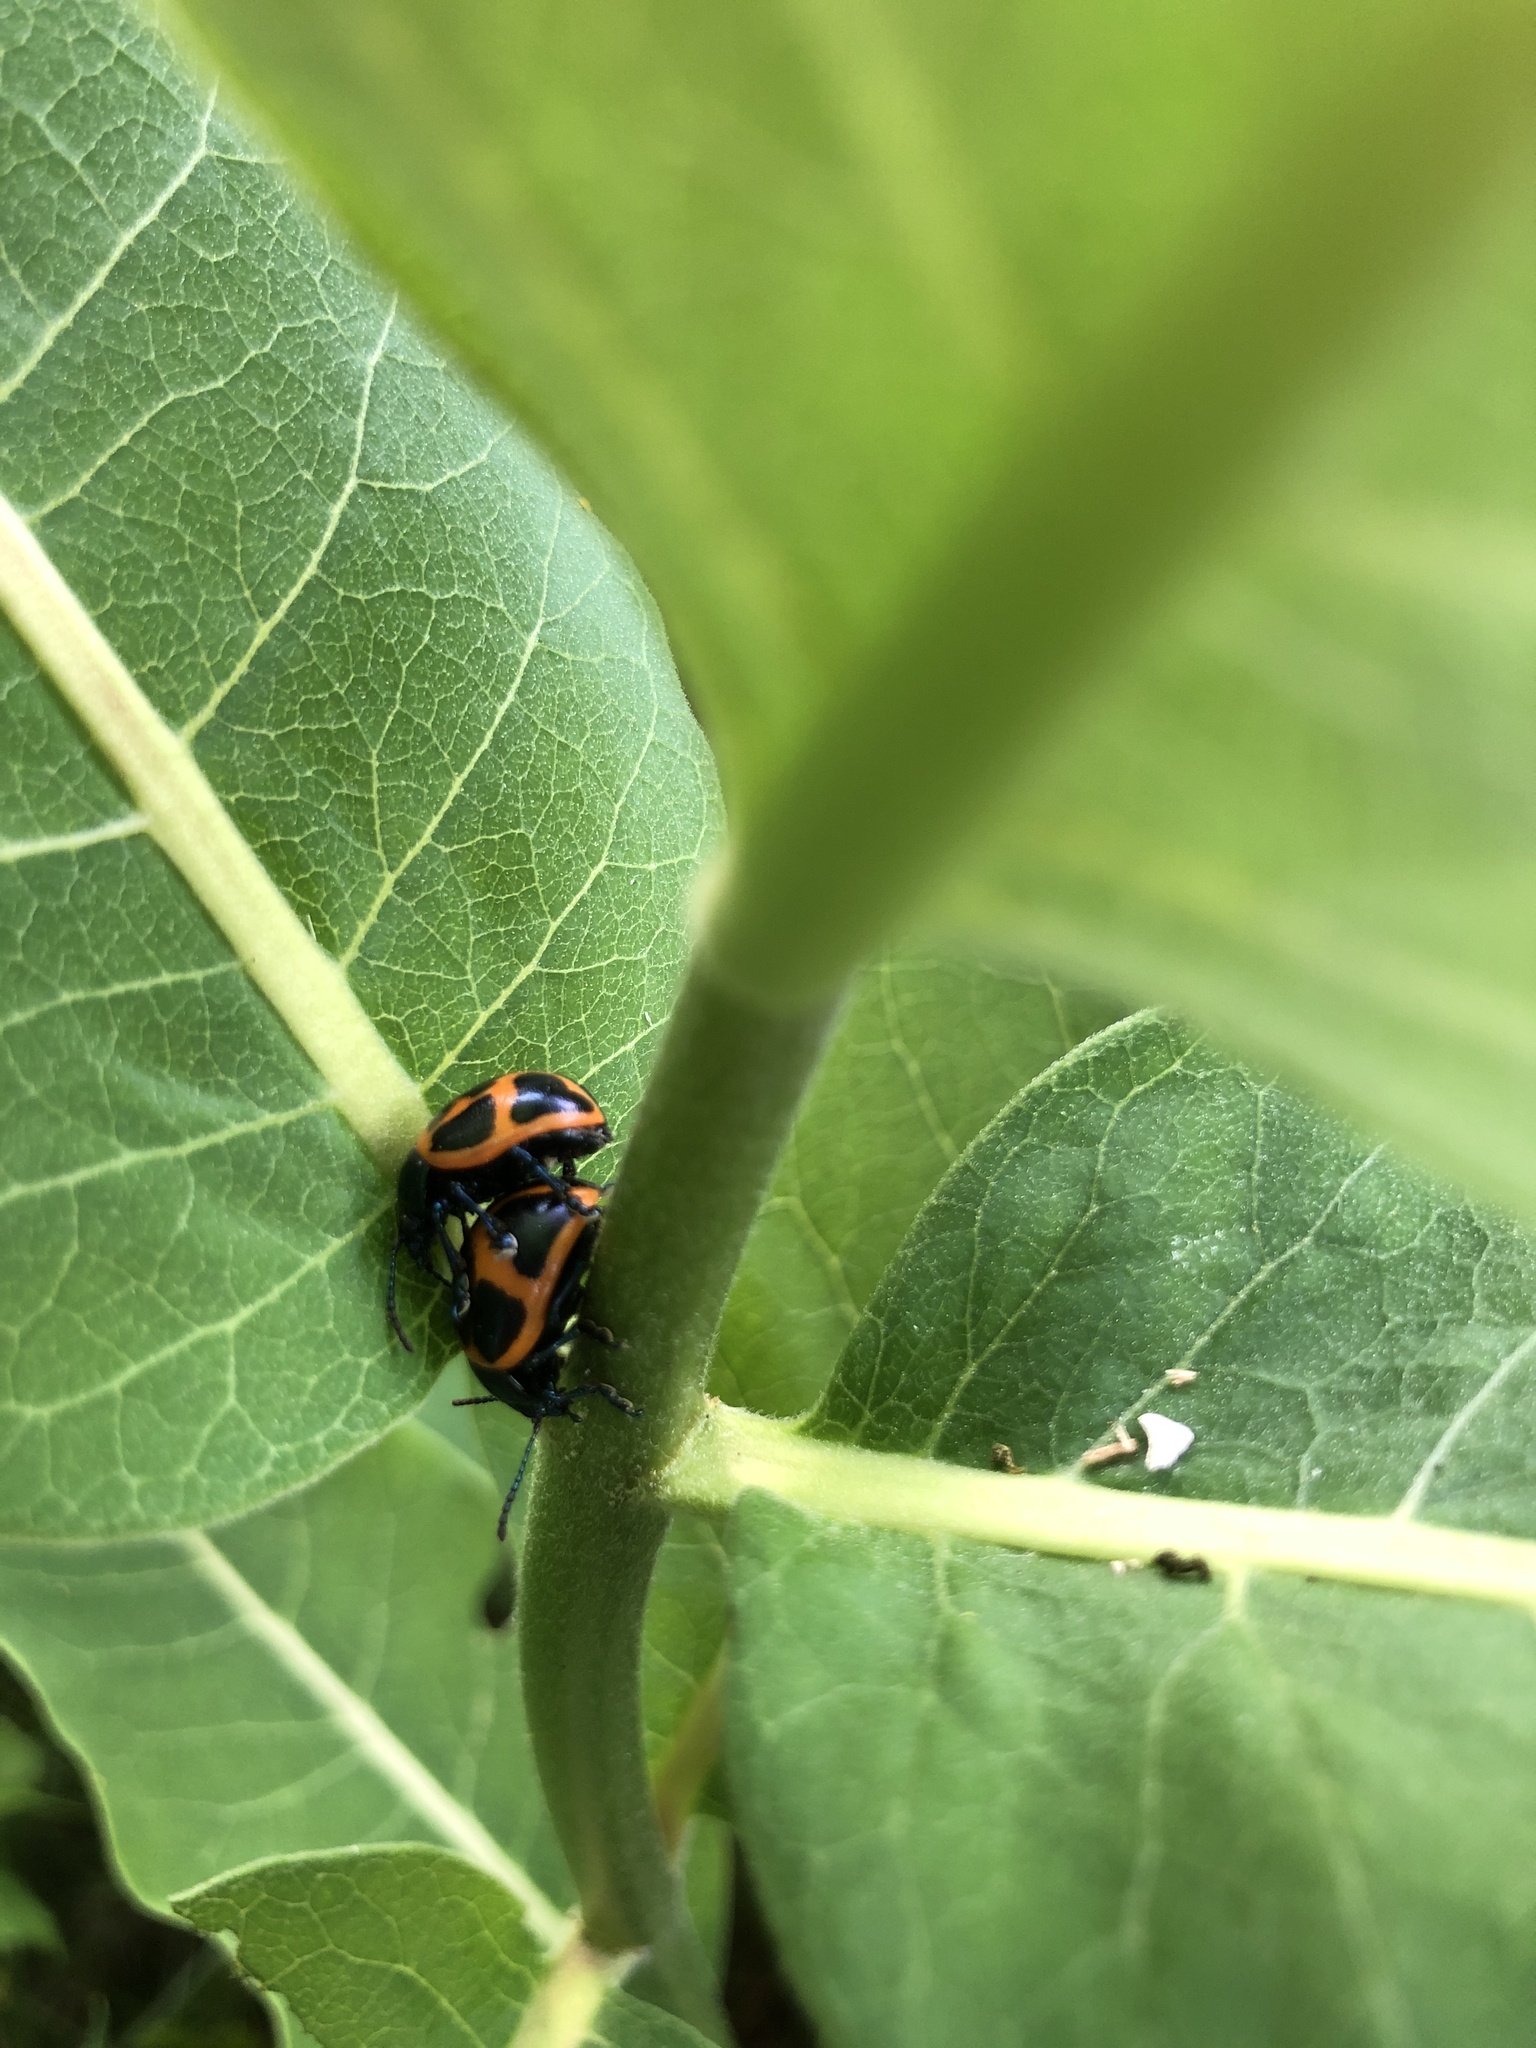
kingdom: Animalia
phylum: Arthropoda
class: Insecta
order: Coleoptera
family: Chrysomelidae
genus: Labidomera
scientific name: Labidomera clivicollis
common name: Swamp milkweed leaf beetle
